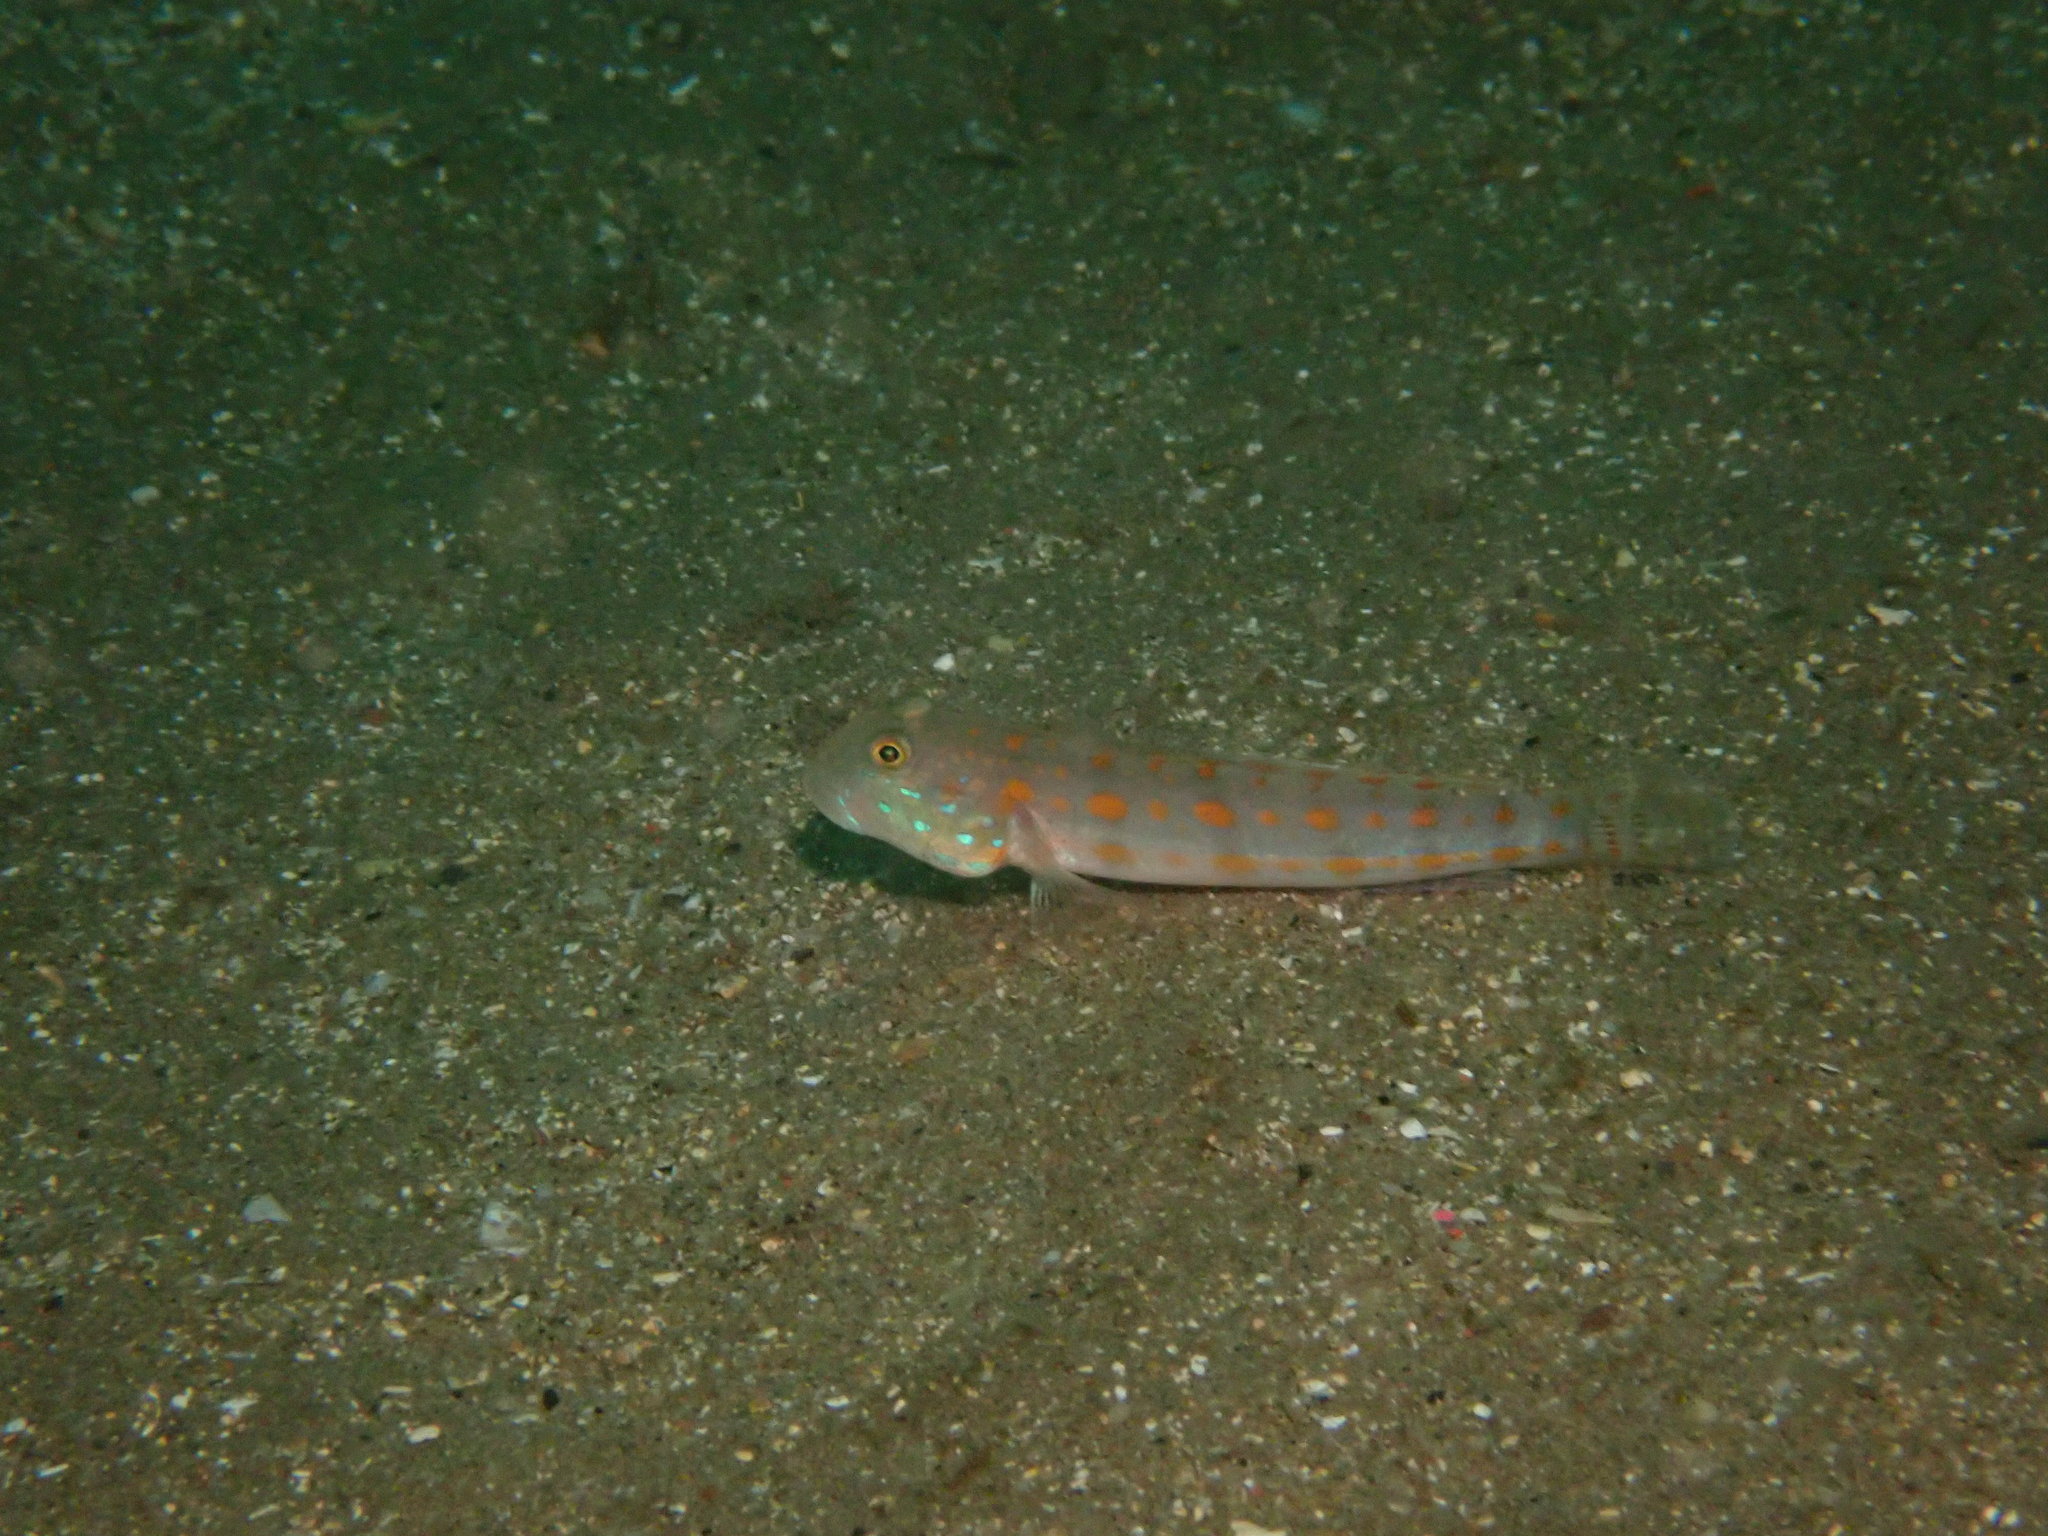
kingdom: Animalia
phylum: Chordata
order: Perciformes
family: Gobiidae
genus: Valenciennea
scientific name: Valenciennea puellaris
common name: Orange-dashed goby
